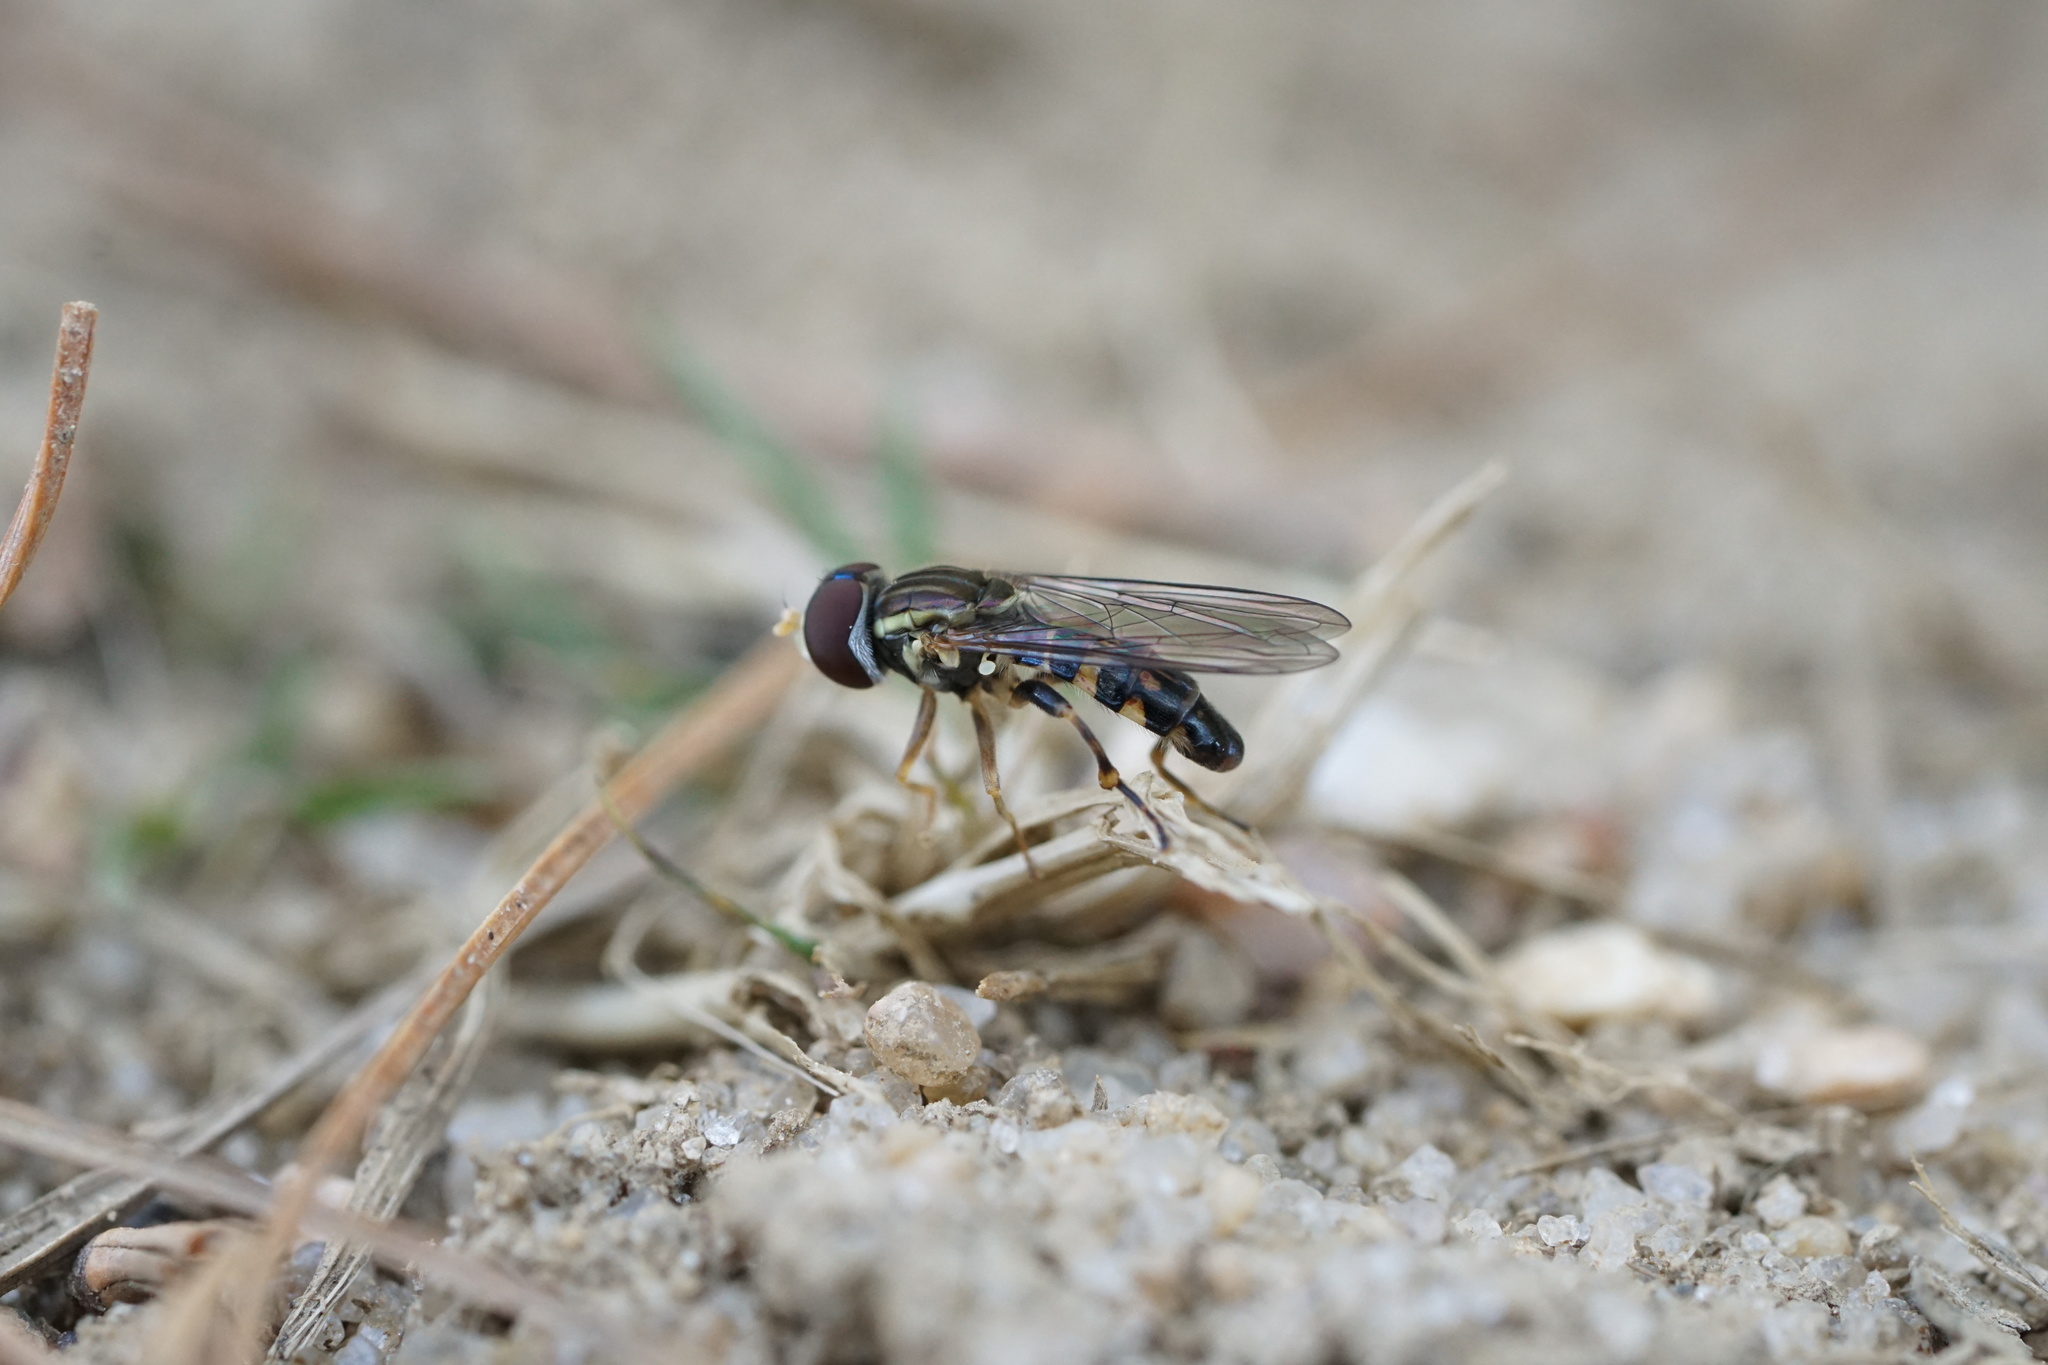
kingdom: Animalia
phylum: Arthropoda
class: Insecta
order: Diptera
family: Syrphidae
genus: Toxomerus
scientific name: Toxomerus geminatus
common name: Eastern calligrapher
